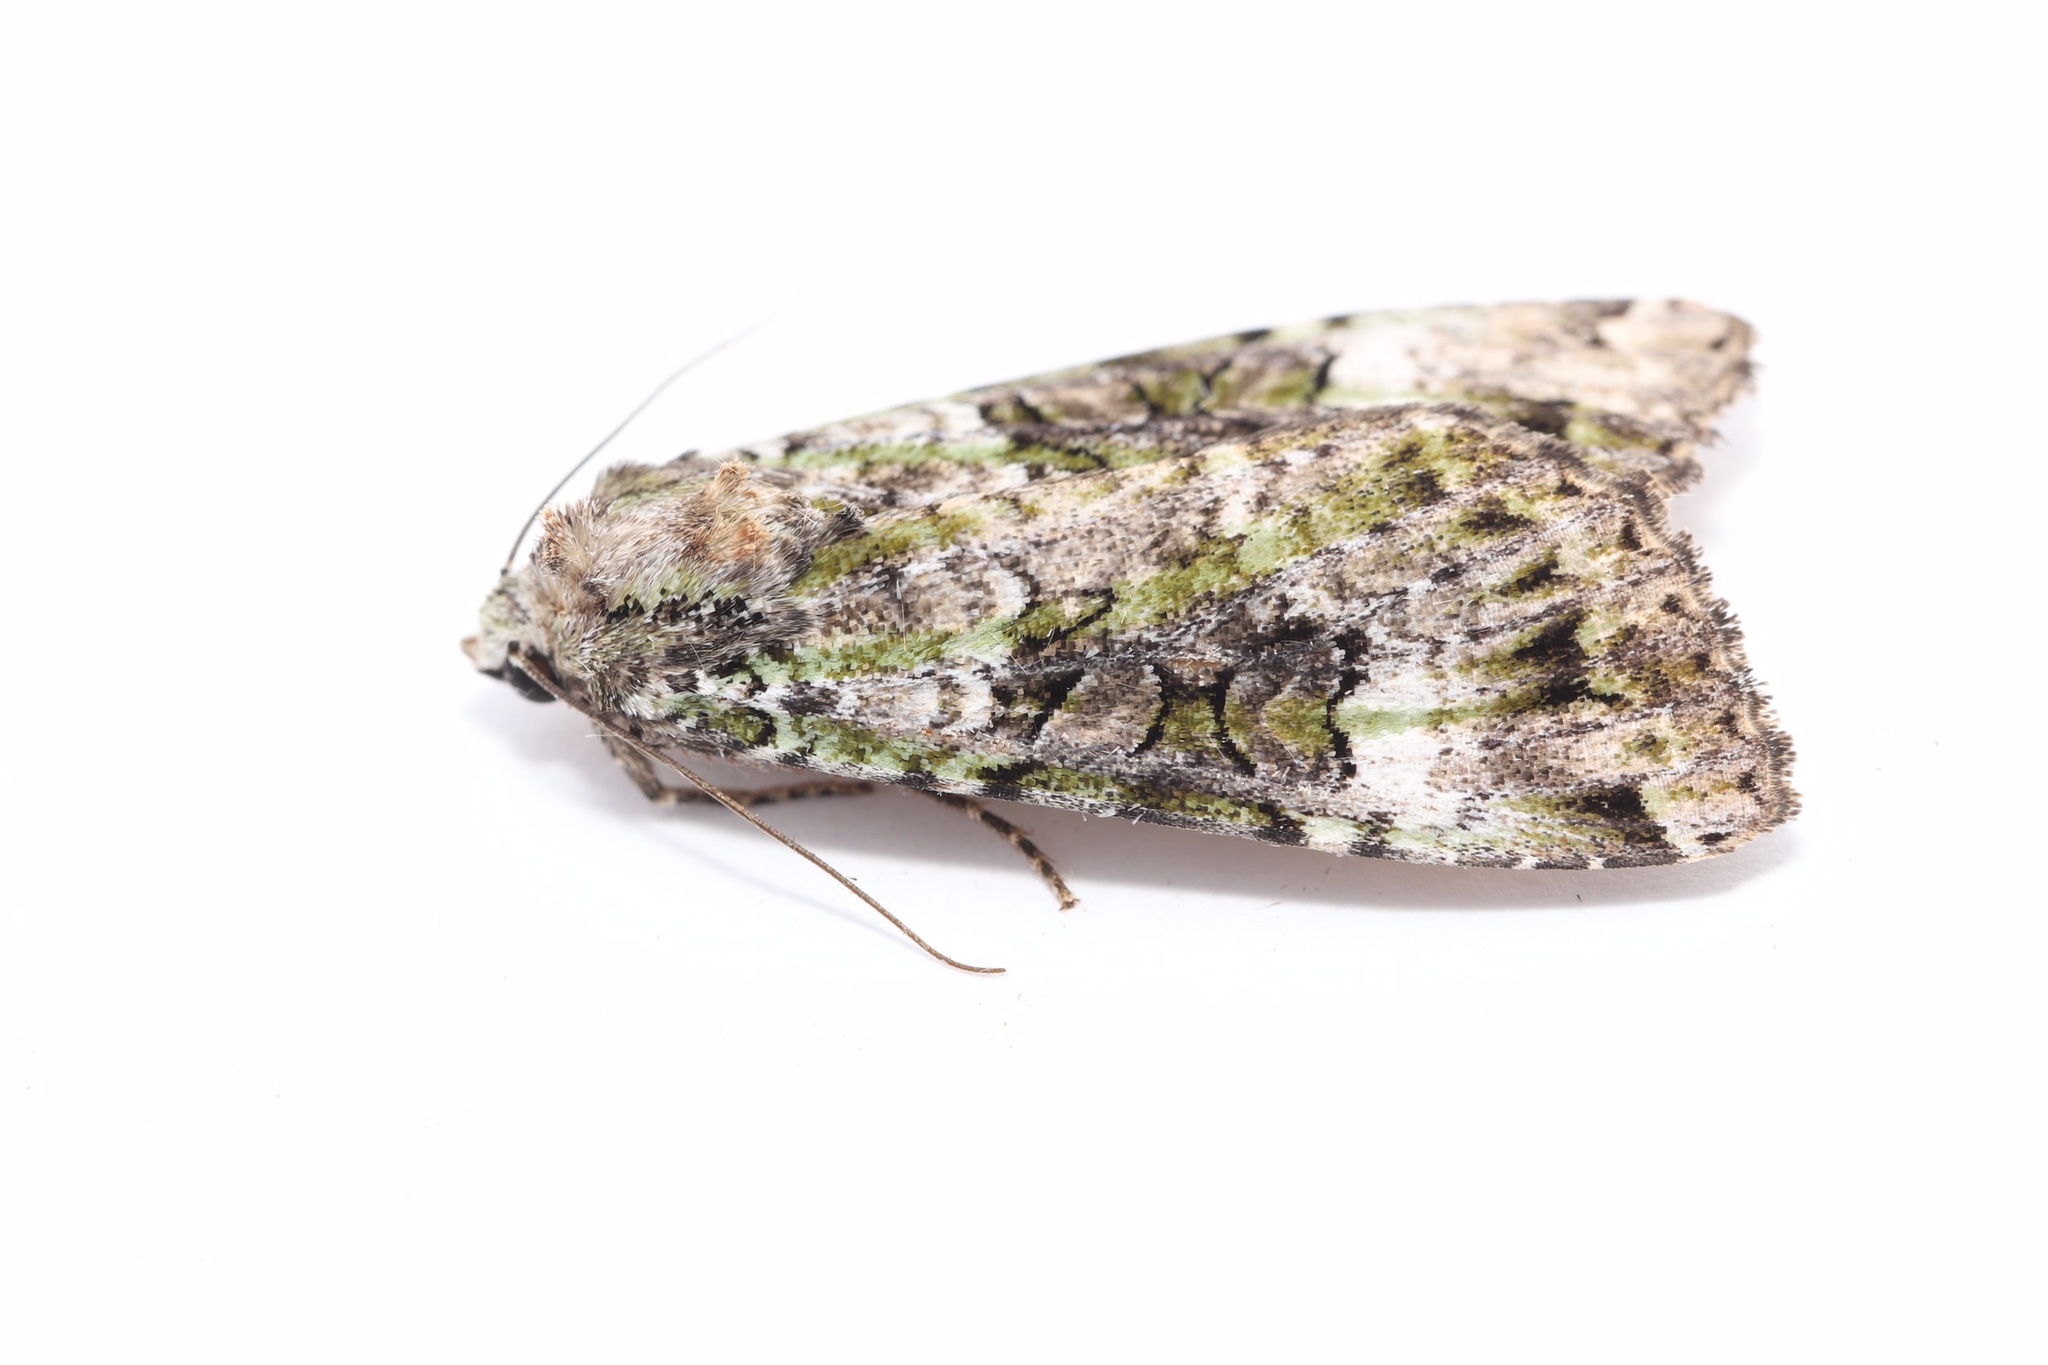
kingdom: Animalia
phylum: Arthropoda
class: Insecta
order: Lepidoptera
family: Noctuidae
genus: Anaplectoides
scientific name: Anaplectoides prasina
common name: Green arches
